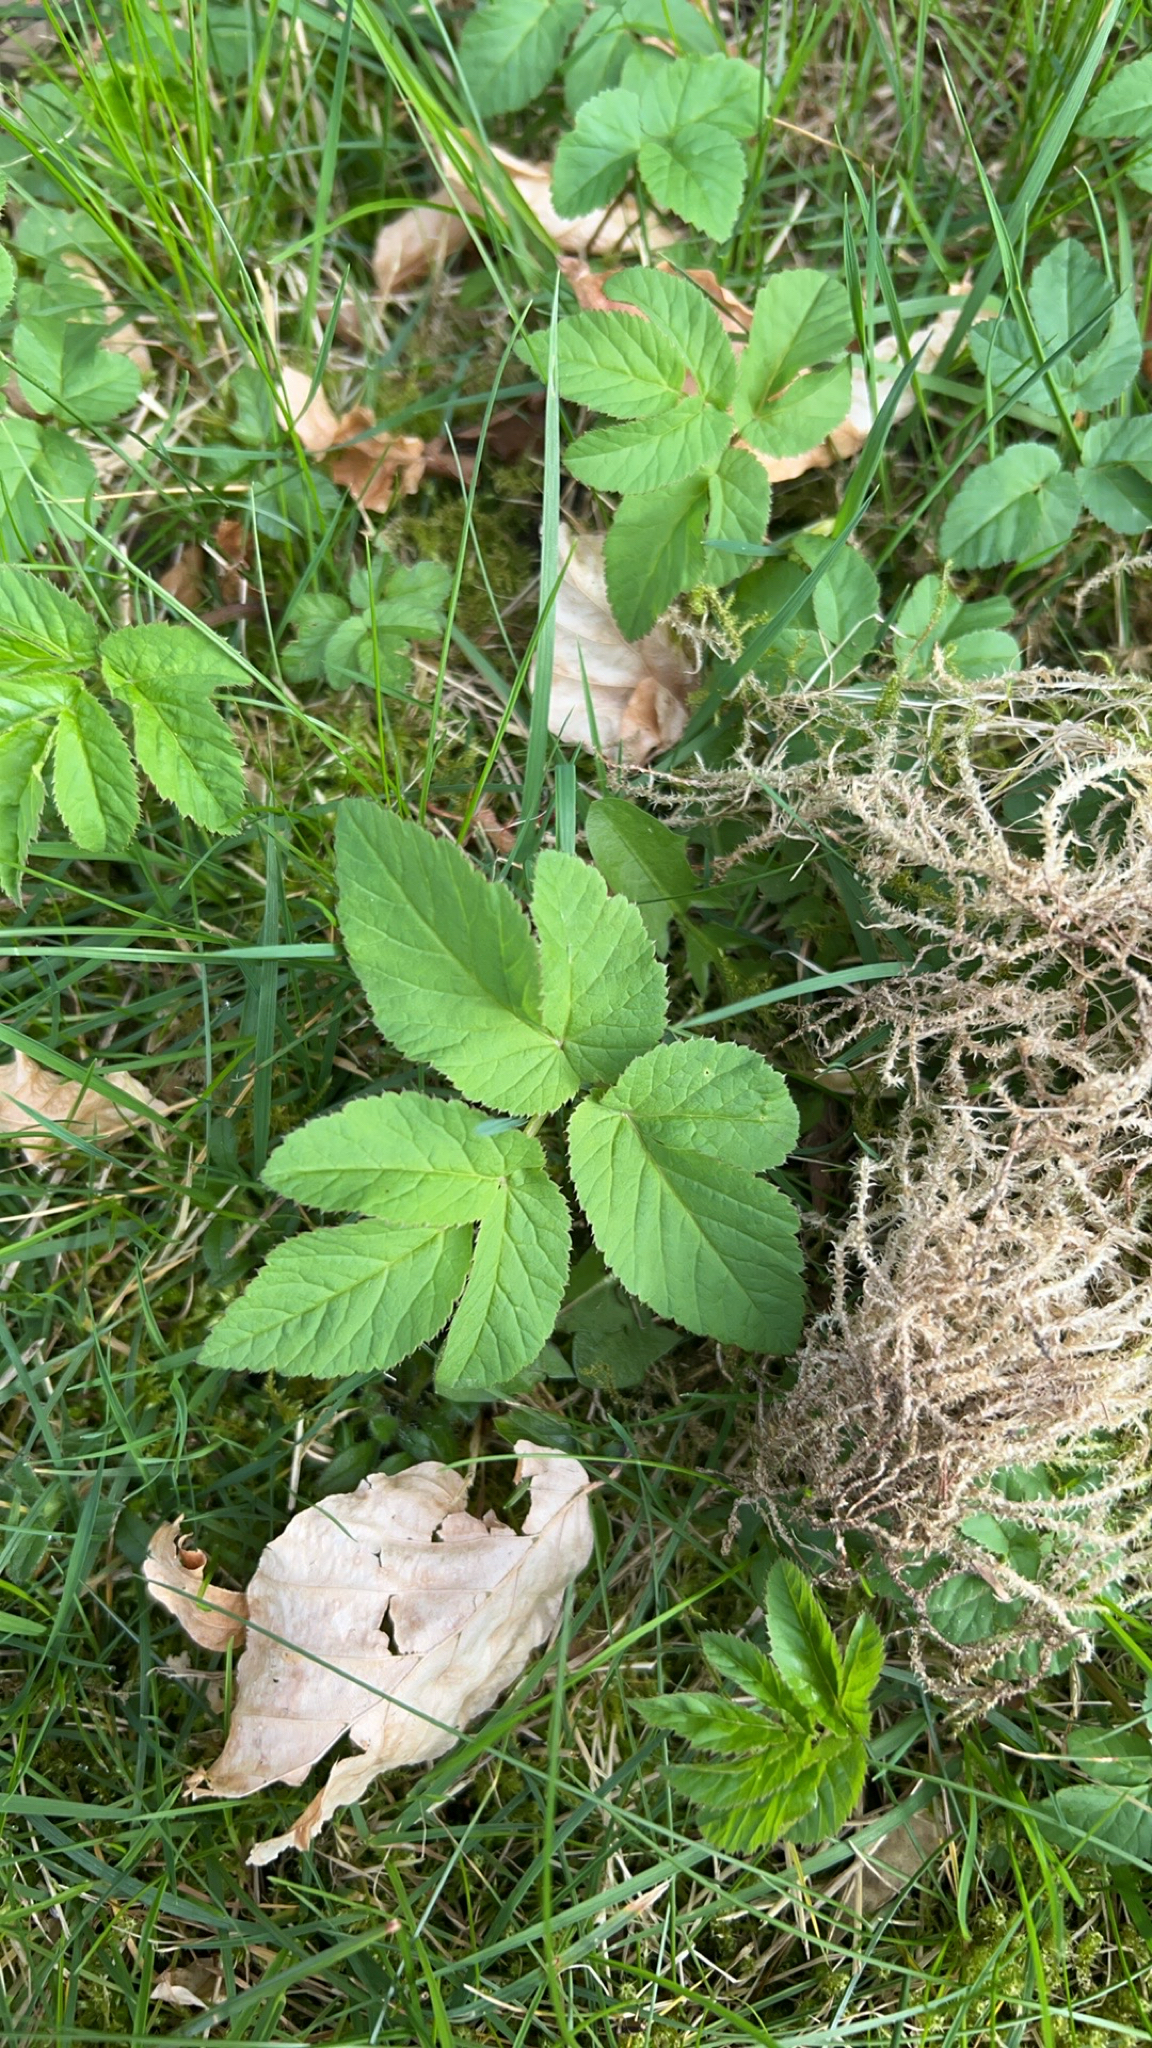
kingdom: Plantae
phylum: Tracheophyta
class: Magnoliopsida
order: Apiales
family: Apiaceae
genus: Aegopodium
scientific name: Aegopodium podagraria
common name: Ground-elder
